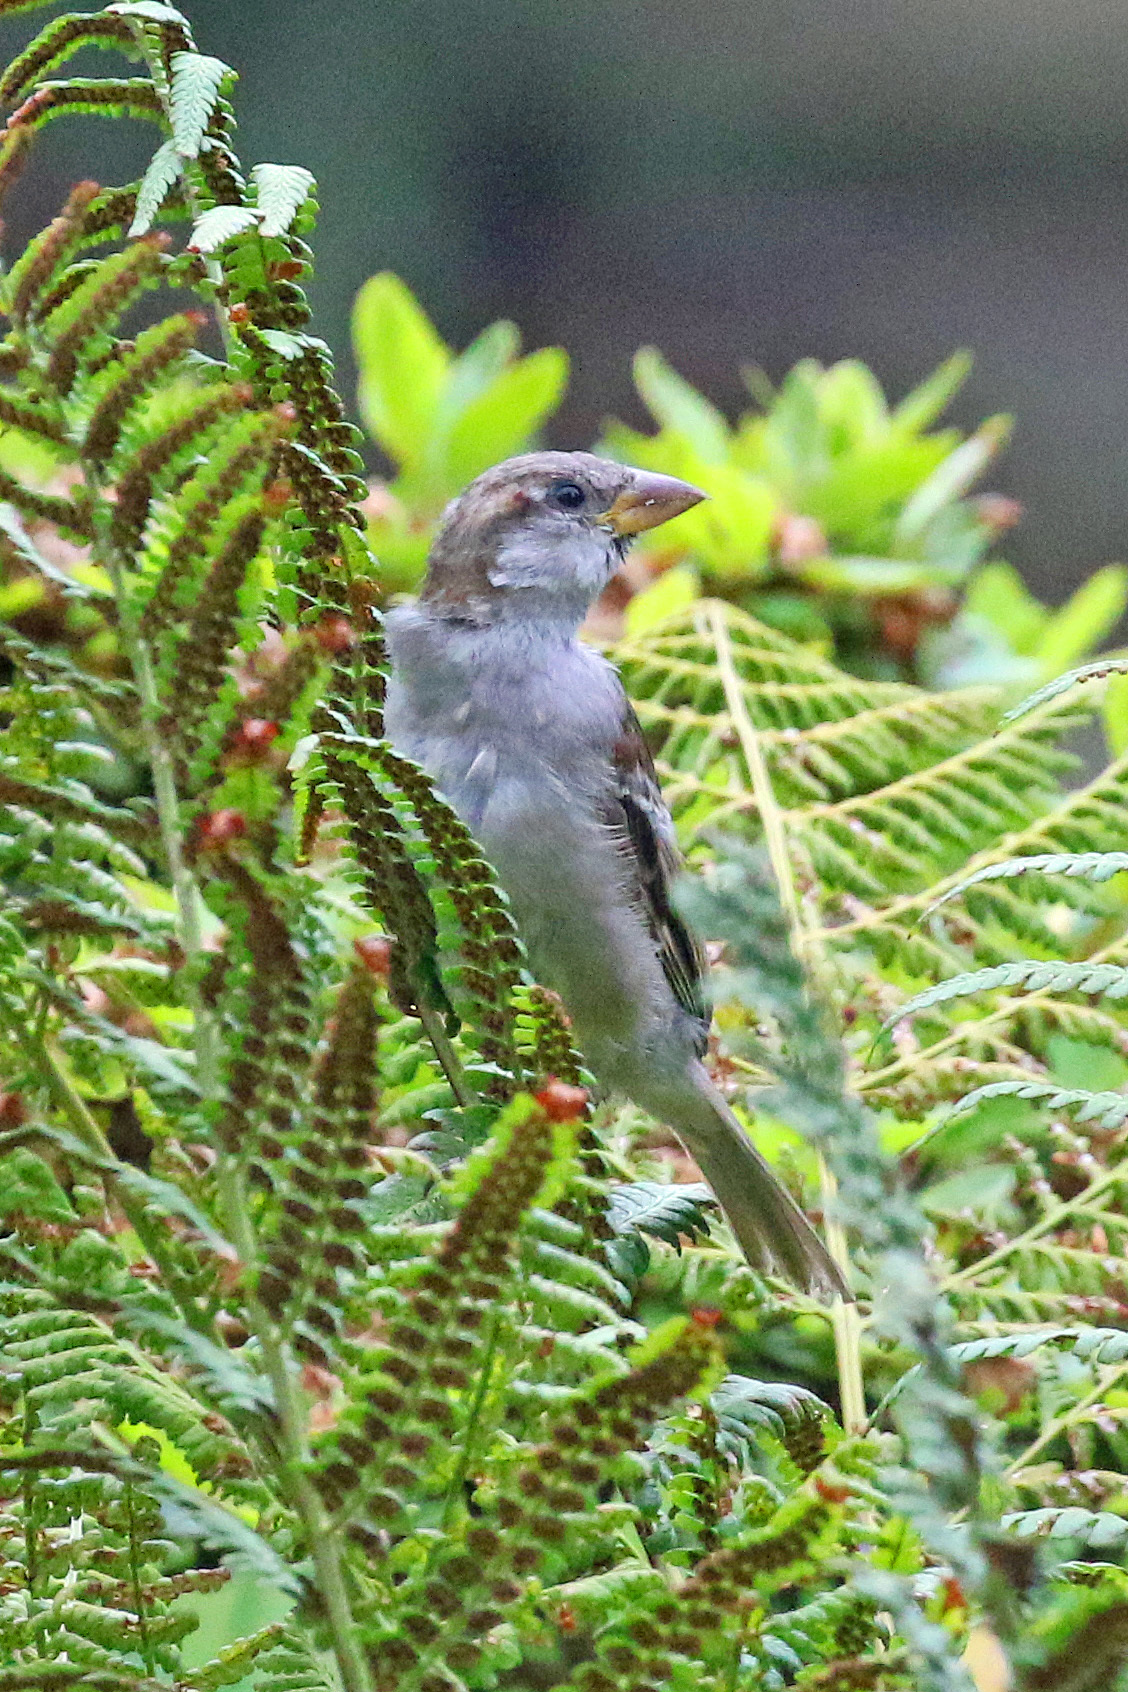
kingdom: Animalia
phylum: Chordata
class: Aves
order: Passeriformes
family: Passeridae
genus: Passer
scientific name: Passer domesticus
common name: House sparrow
